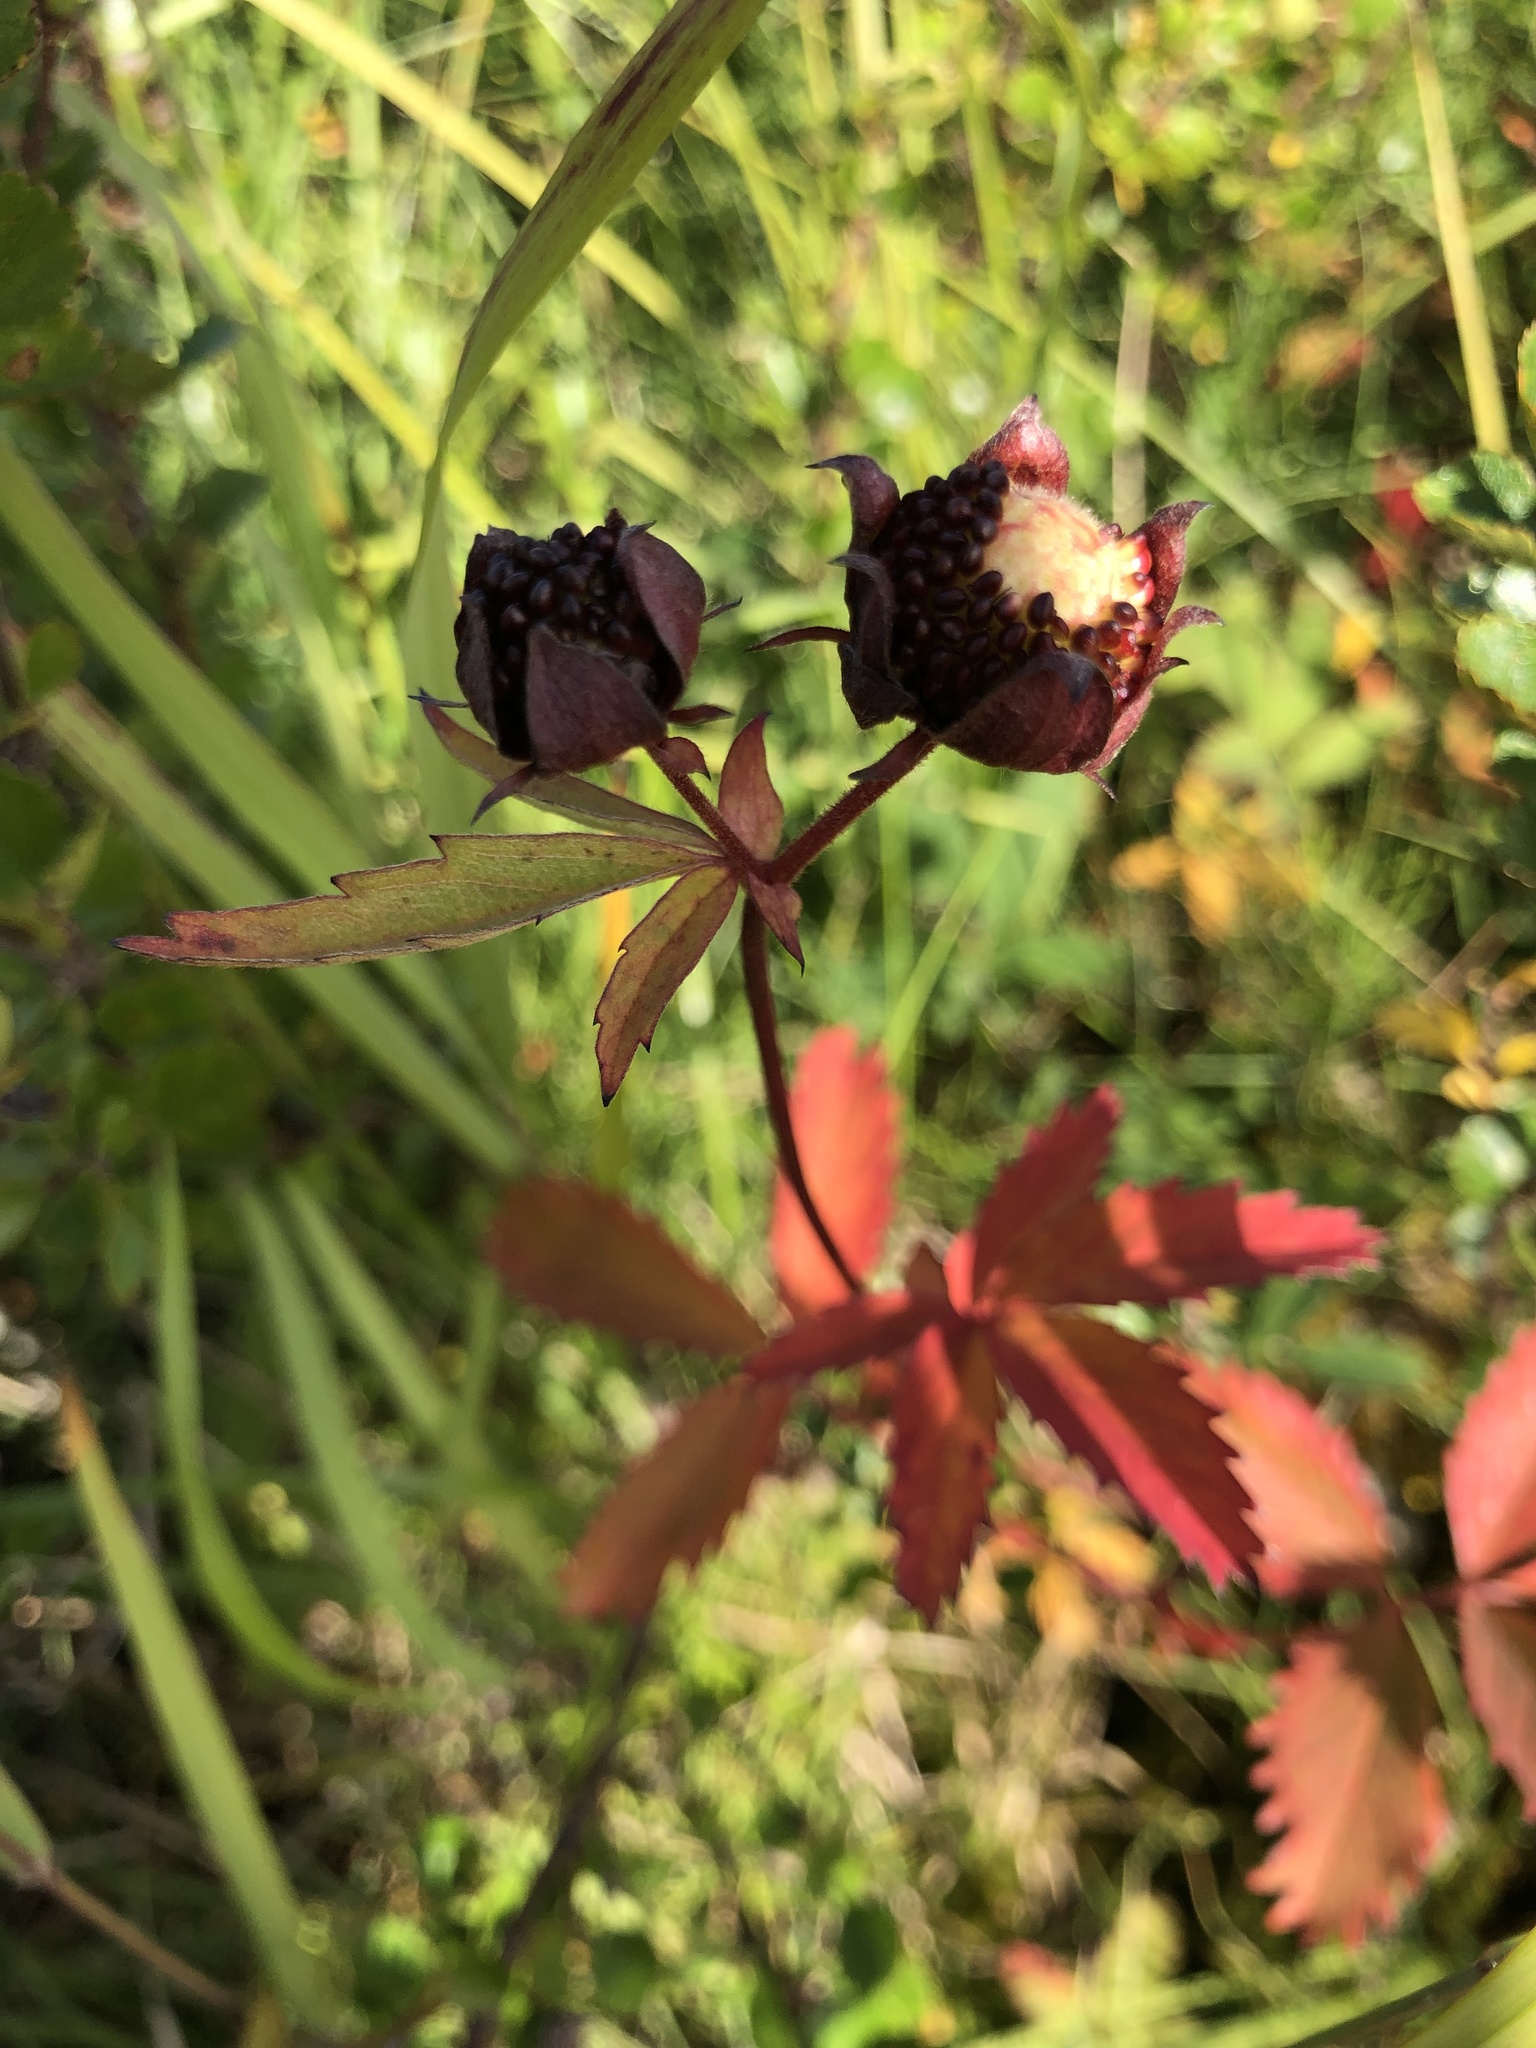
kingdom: Plantae
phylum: Tracheophyta
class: Magnoliopsida
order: Rosales
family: Rosaceae
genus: Comarum
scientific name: Comarum palustre
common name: Marsh cinquefoil
